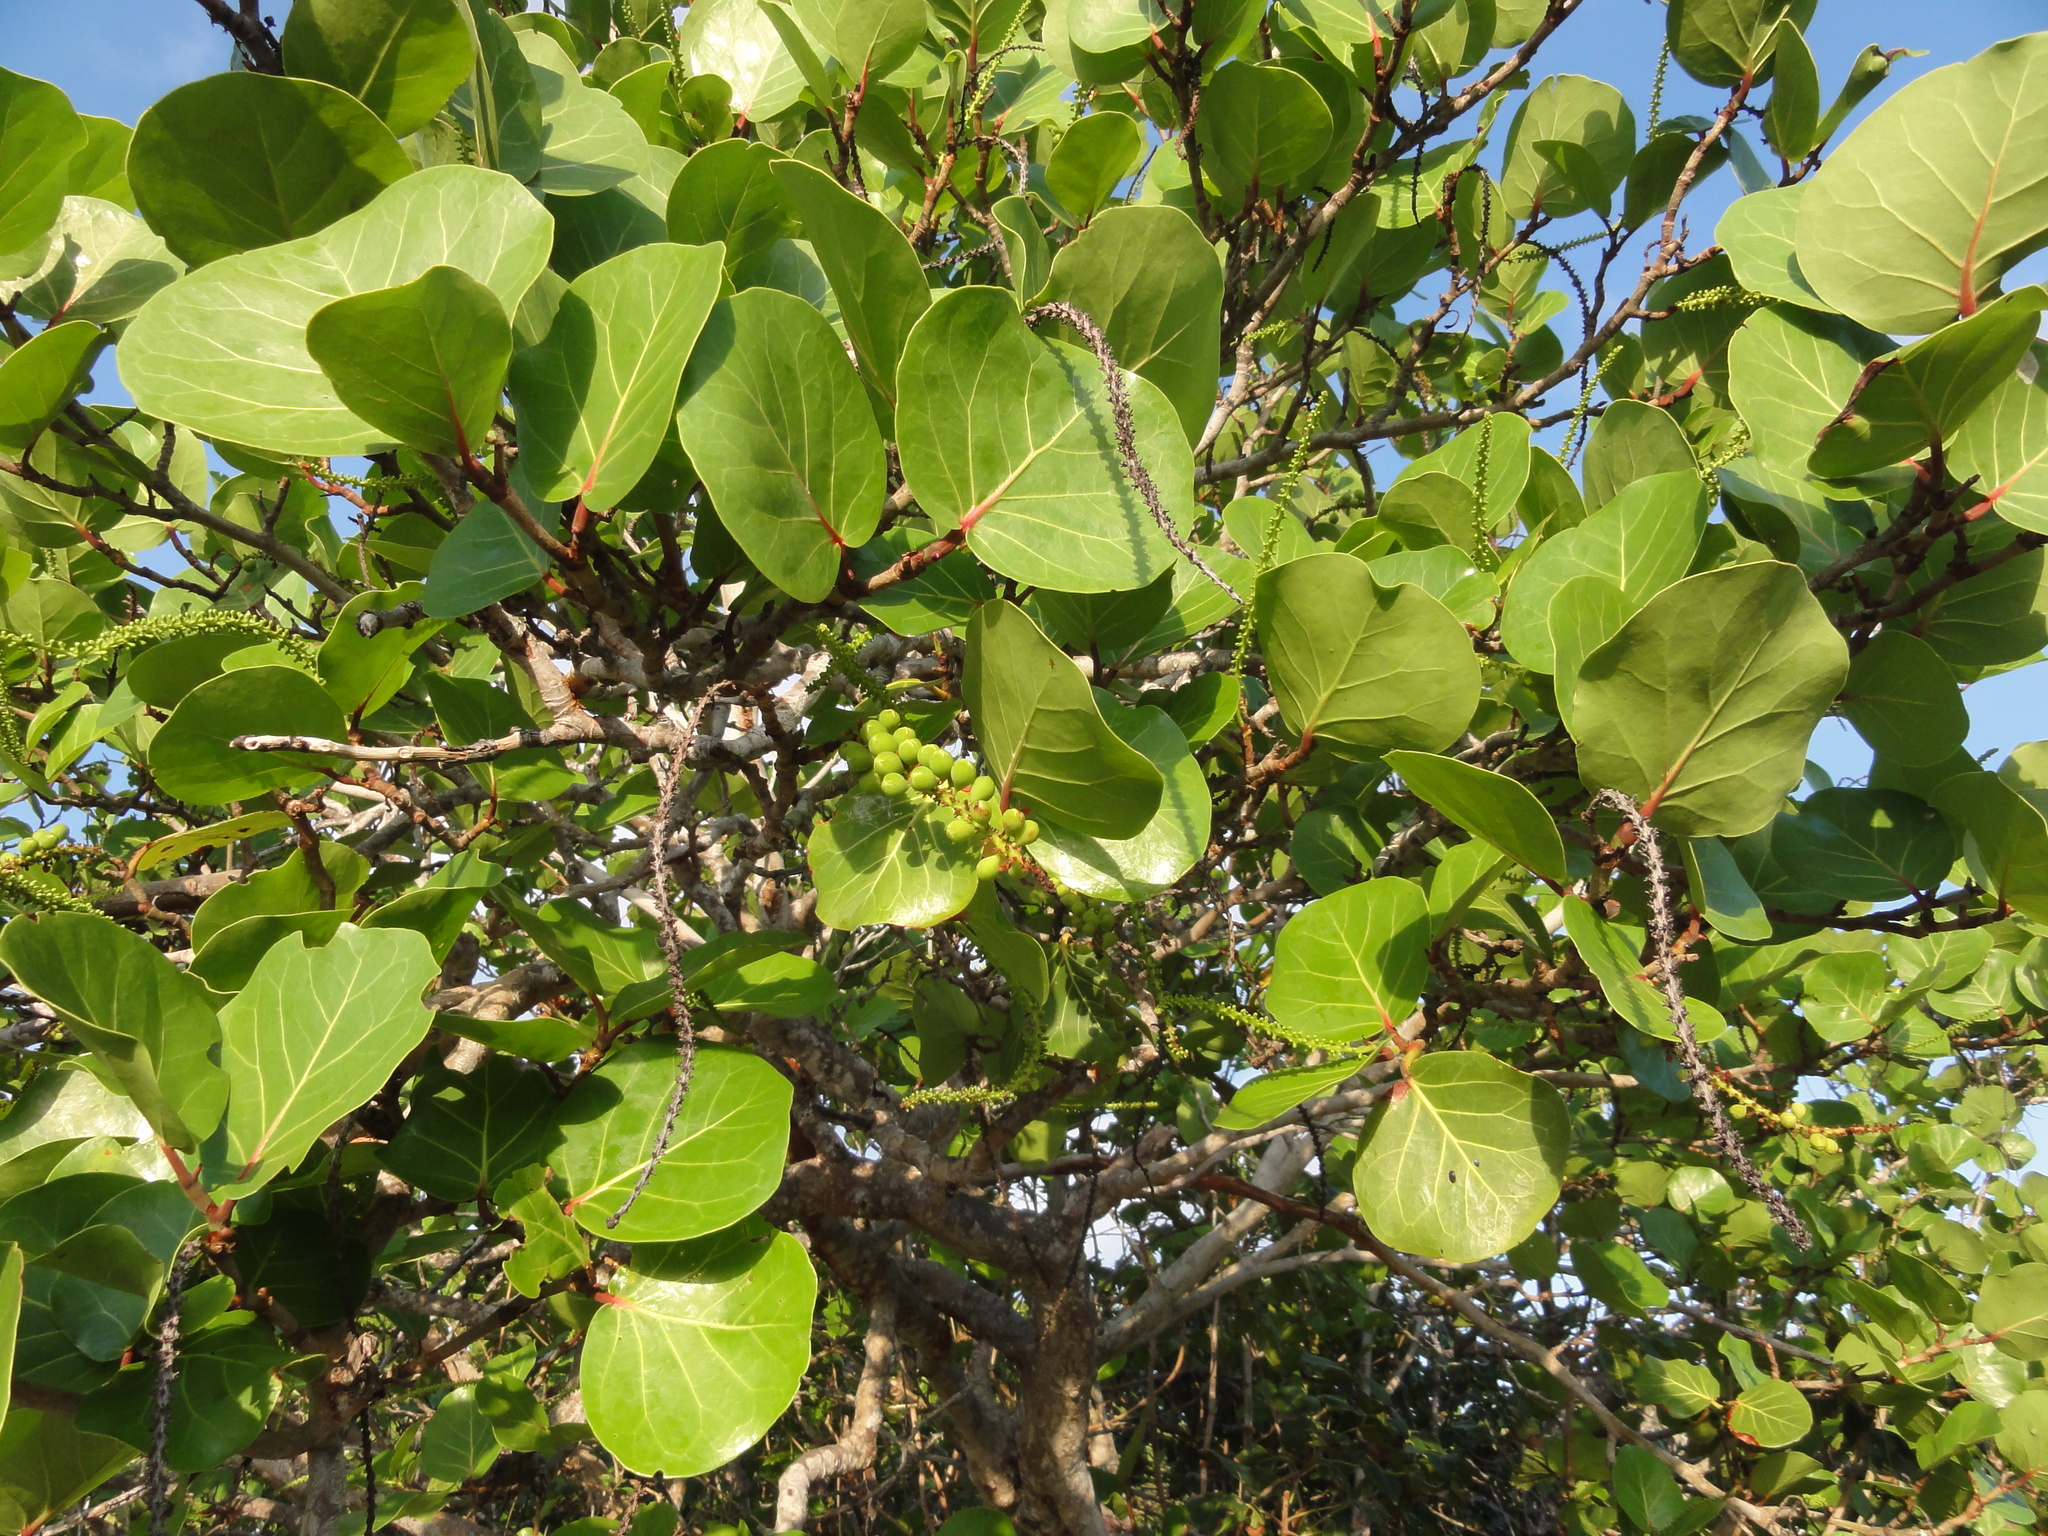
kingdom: Plantae
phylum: Tracheophyta
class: Magnoliopsida
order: Caryophyllales
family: Polygonaceae
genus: Coccoloba
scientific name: Coccoloba uvifera
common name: Seagrape
